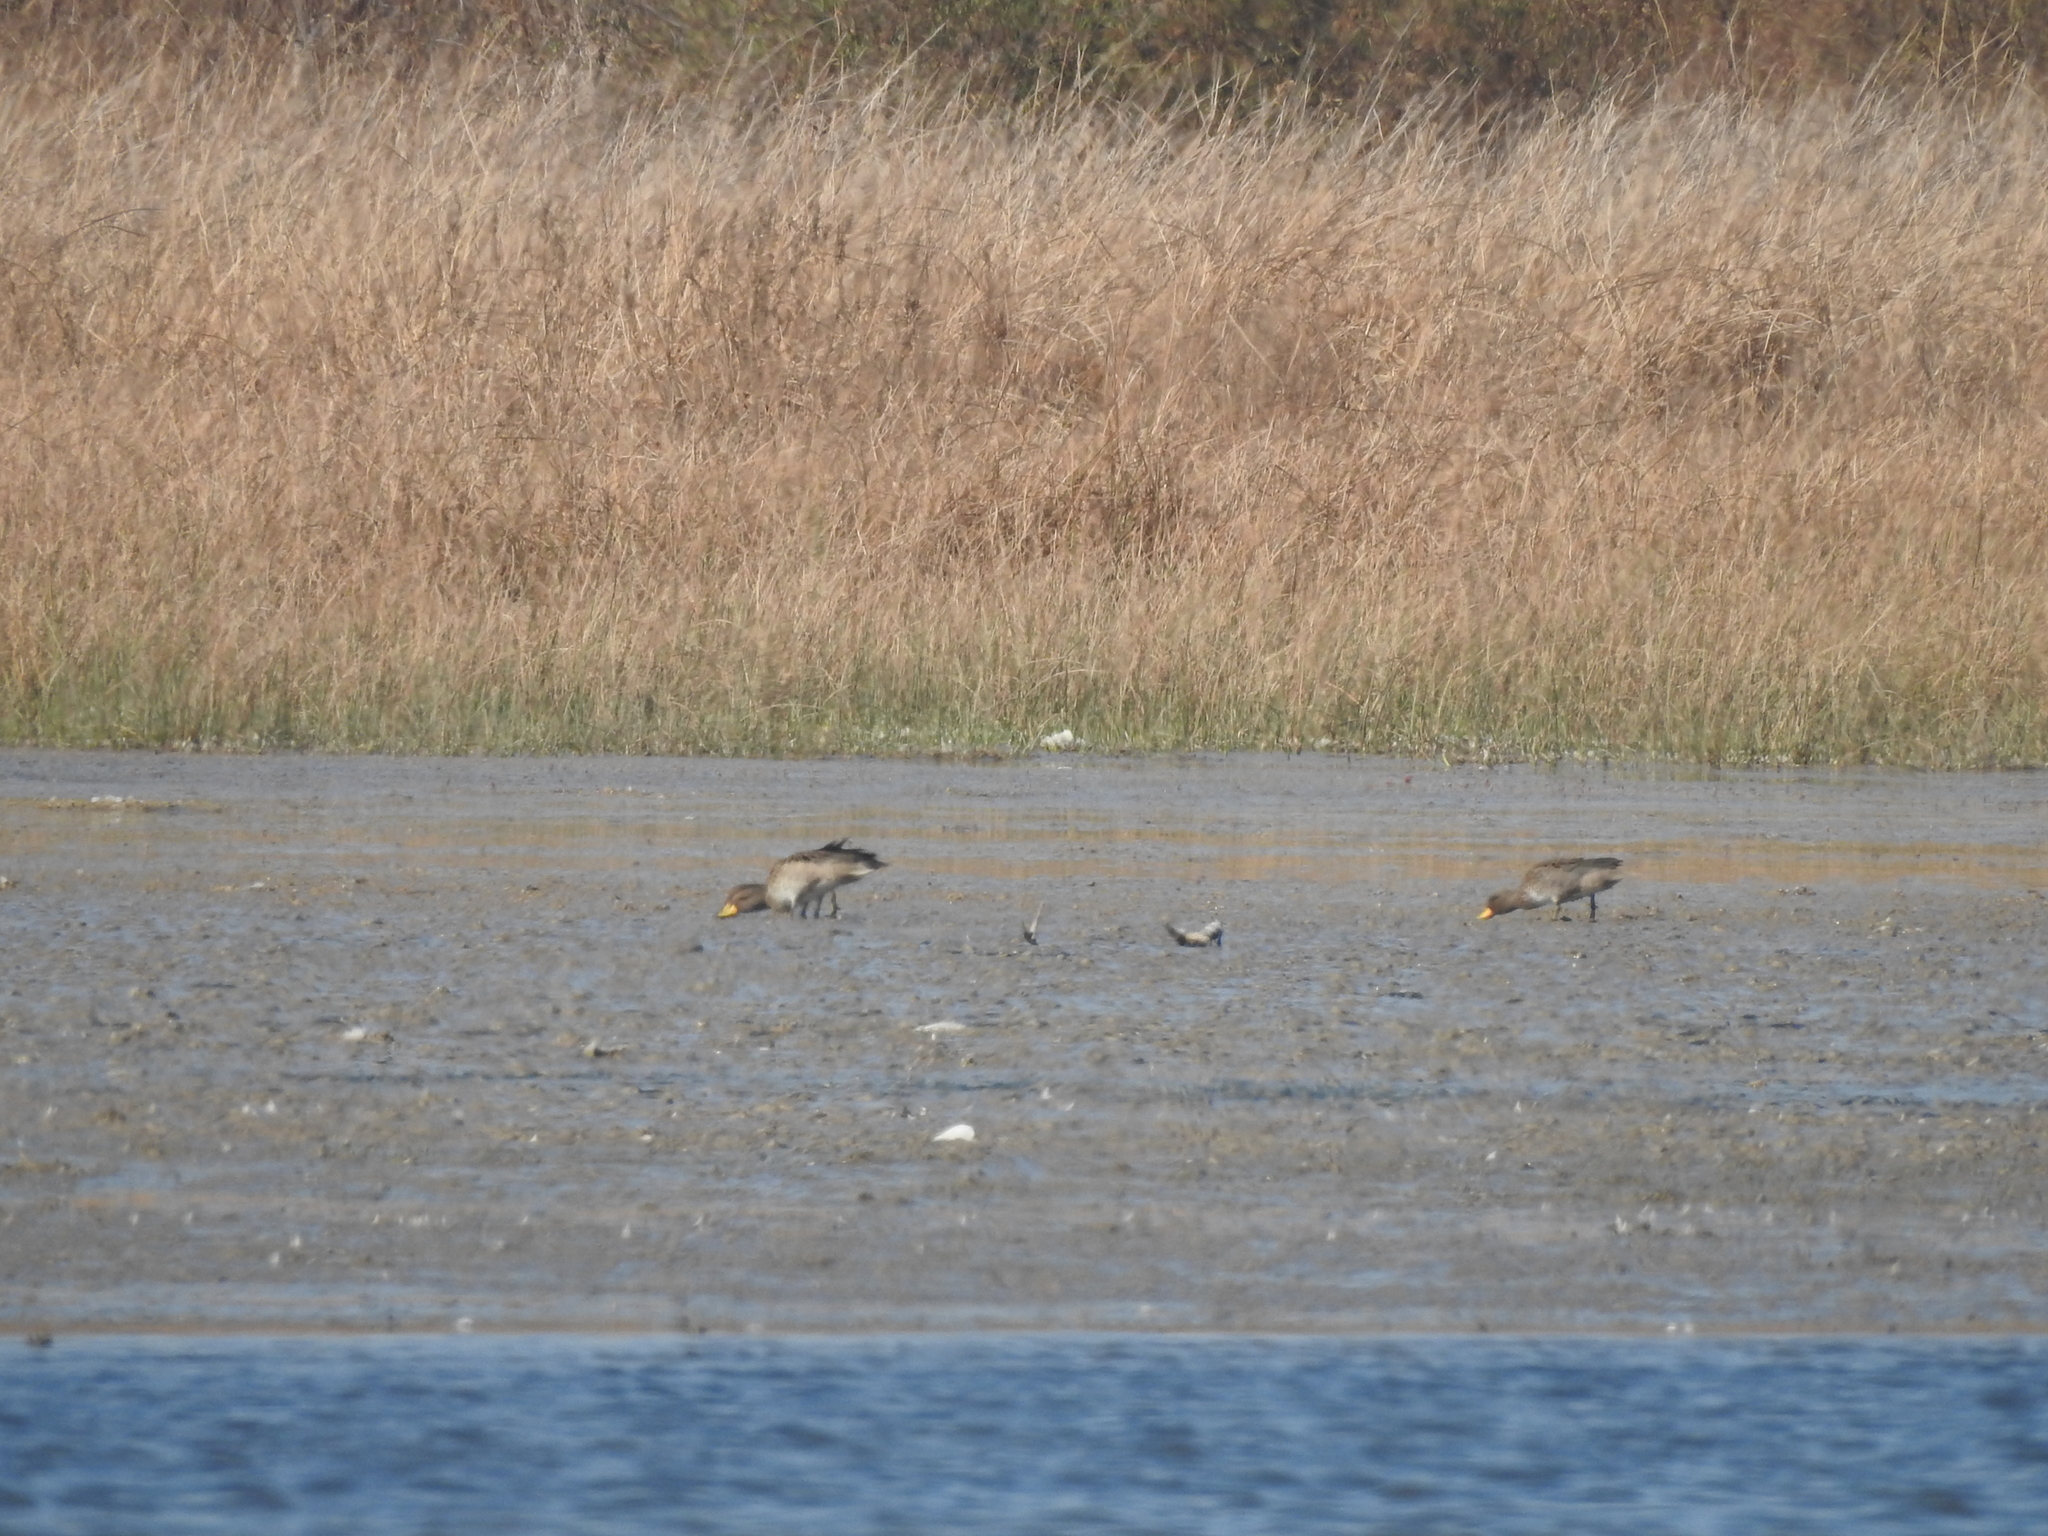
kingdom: Animalia
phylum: Chordata
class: Aves
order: Anseriformes
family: Anatidae
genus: Anas
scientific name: Anas flavirostris
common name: Yellow-billed teal
